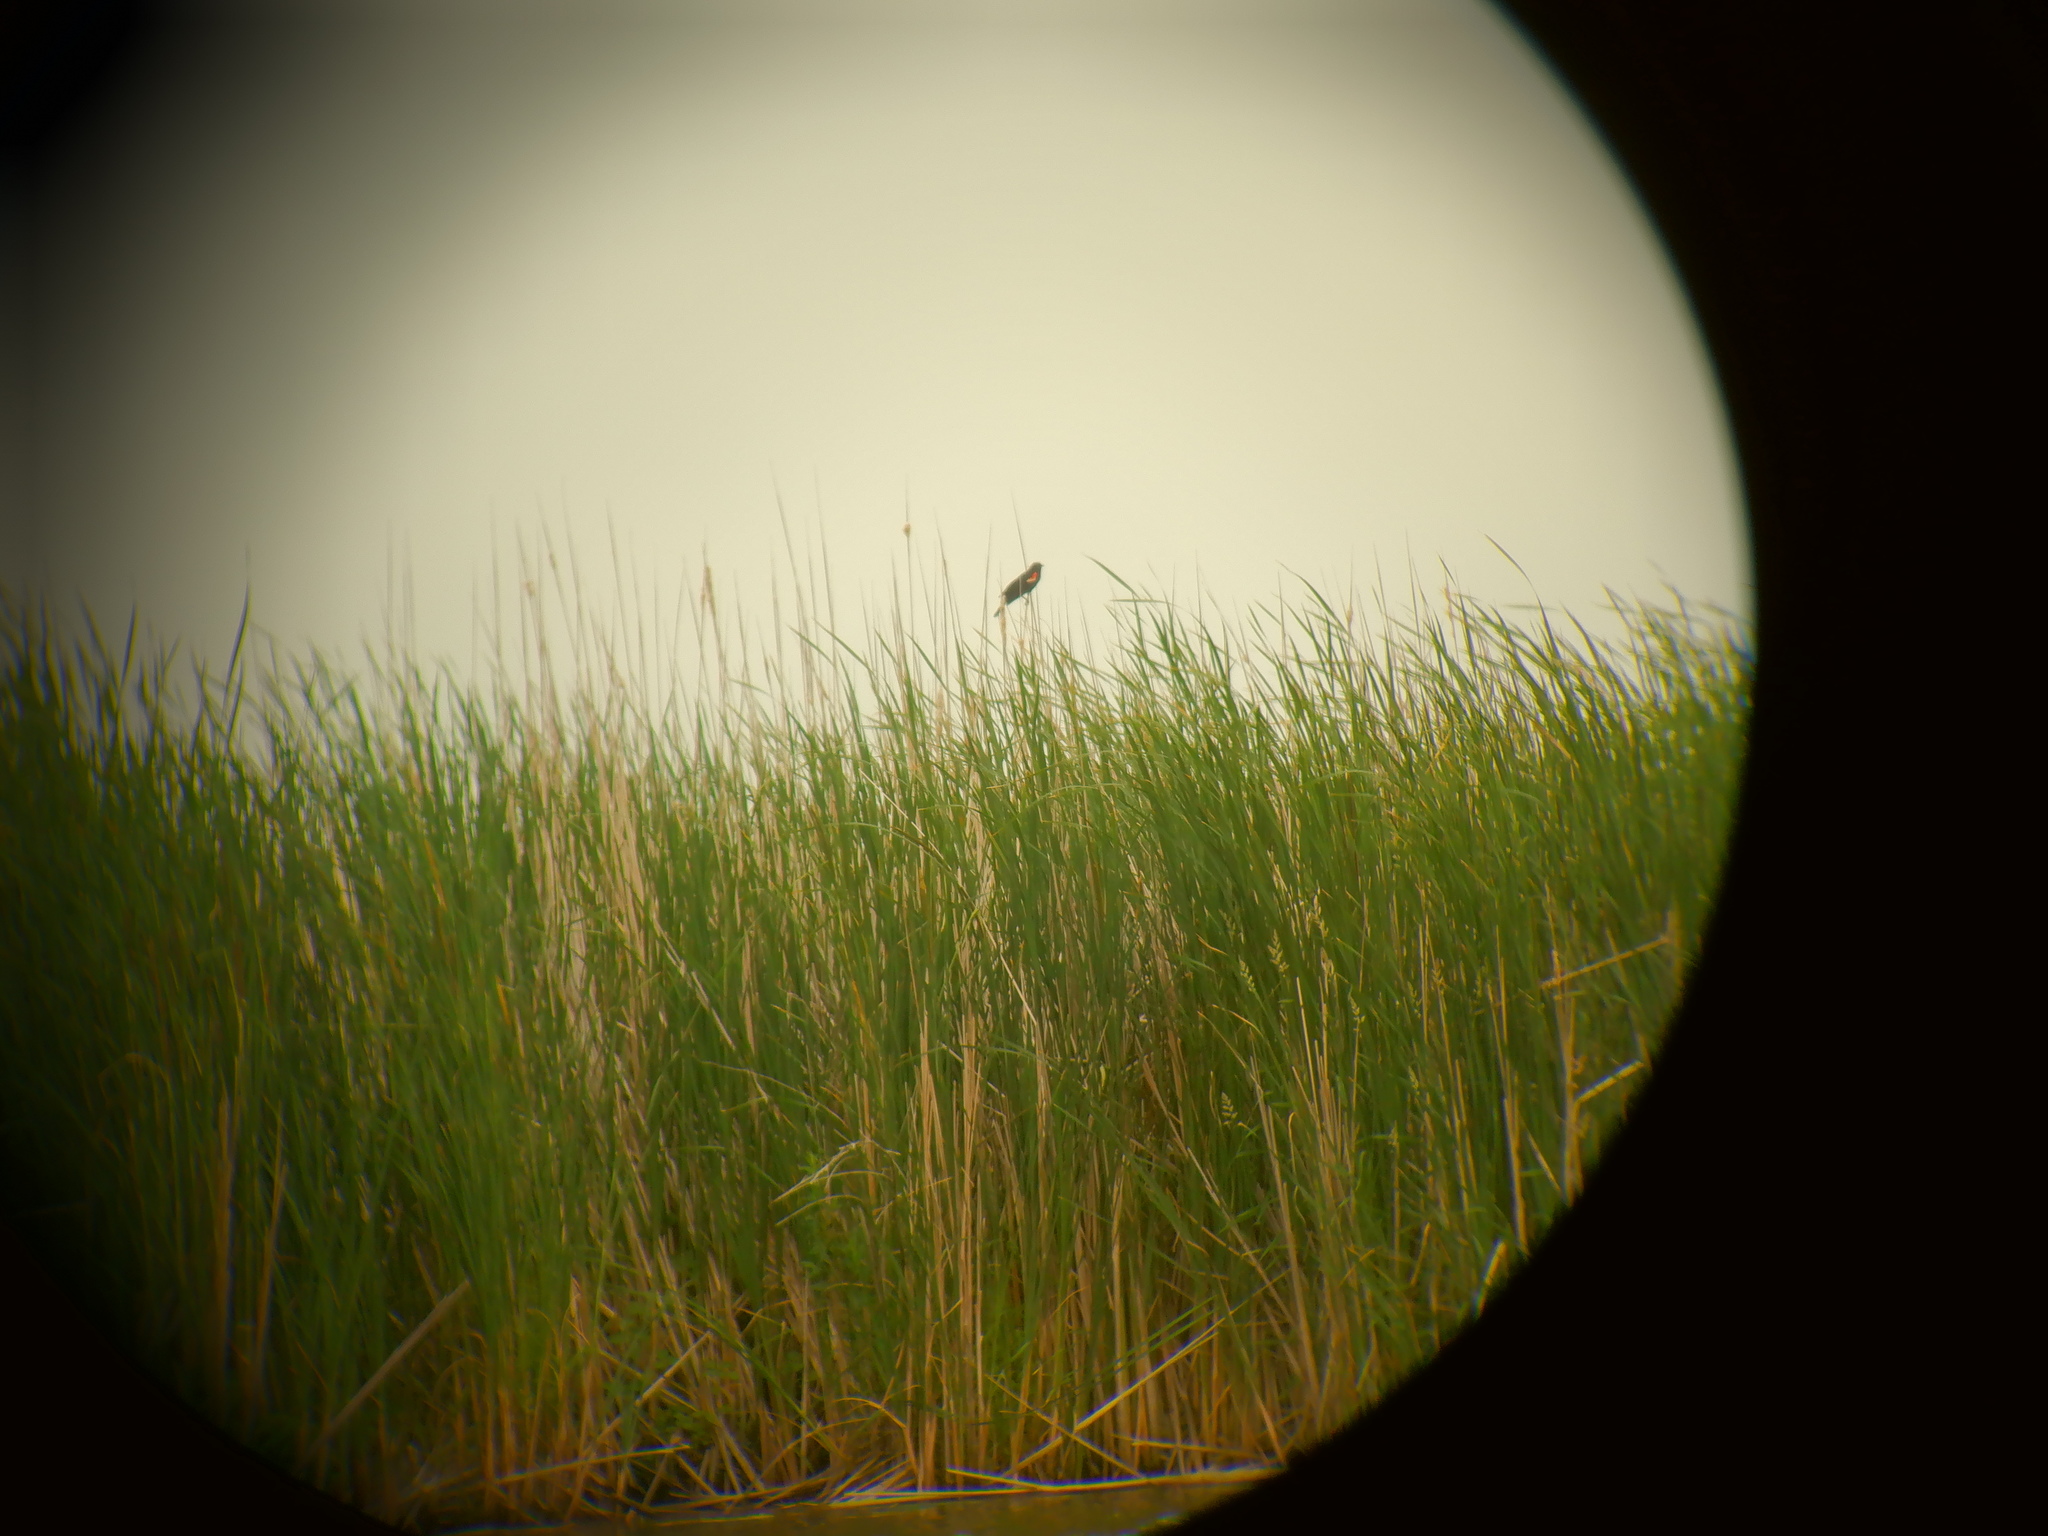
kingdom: Animalia
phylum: Chordata
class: Aves
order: Passeriformes
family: Icteridae
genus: Agelaius
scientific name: Agelaius phoeniceus
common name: Red-winged blackbird
